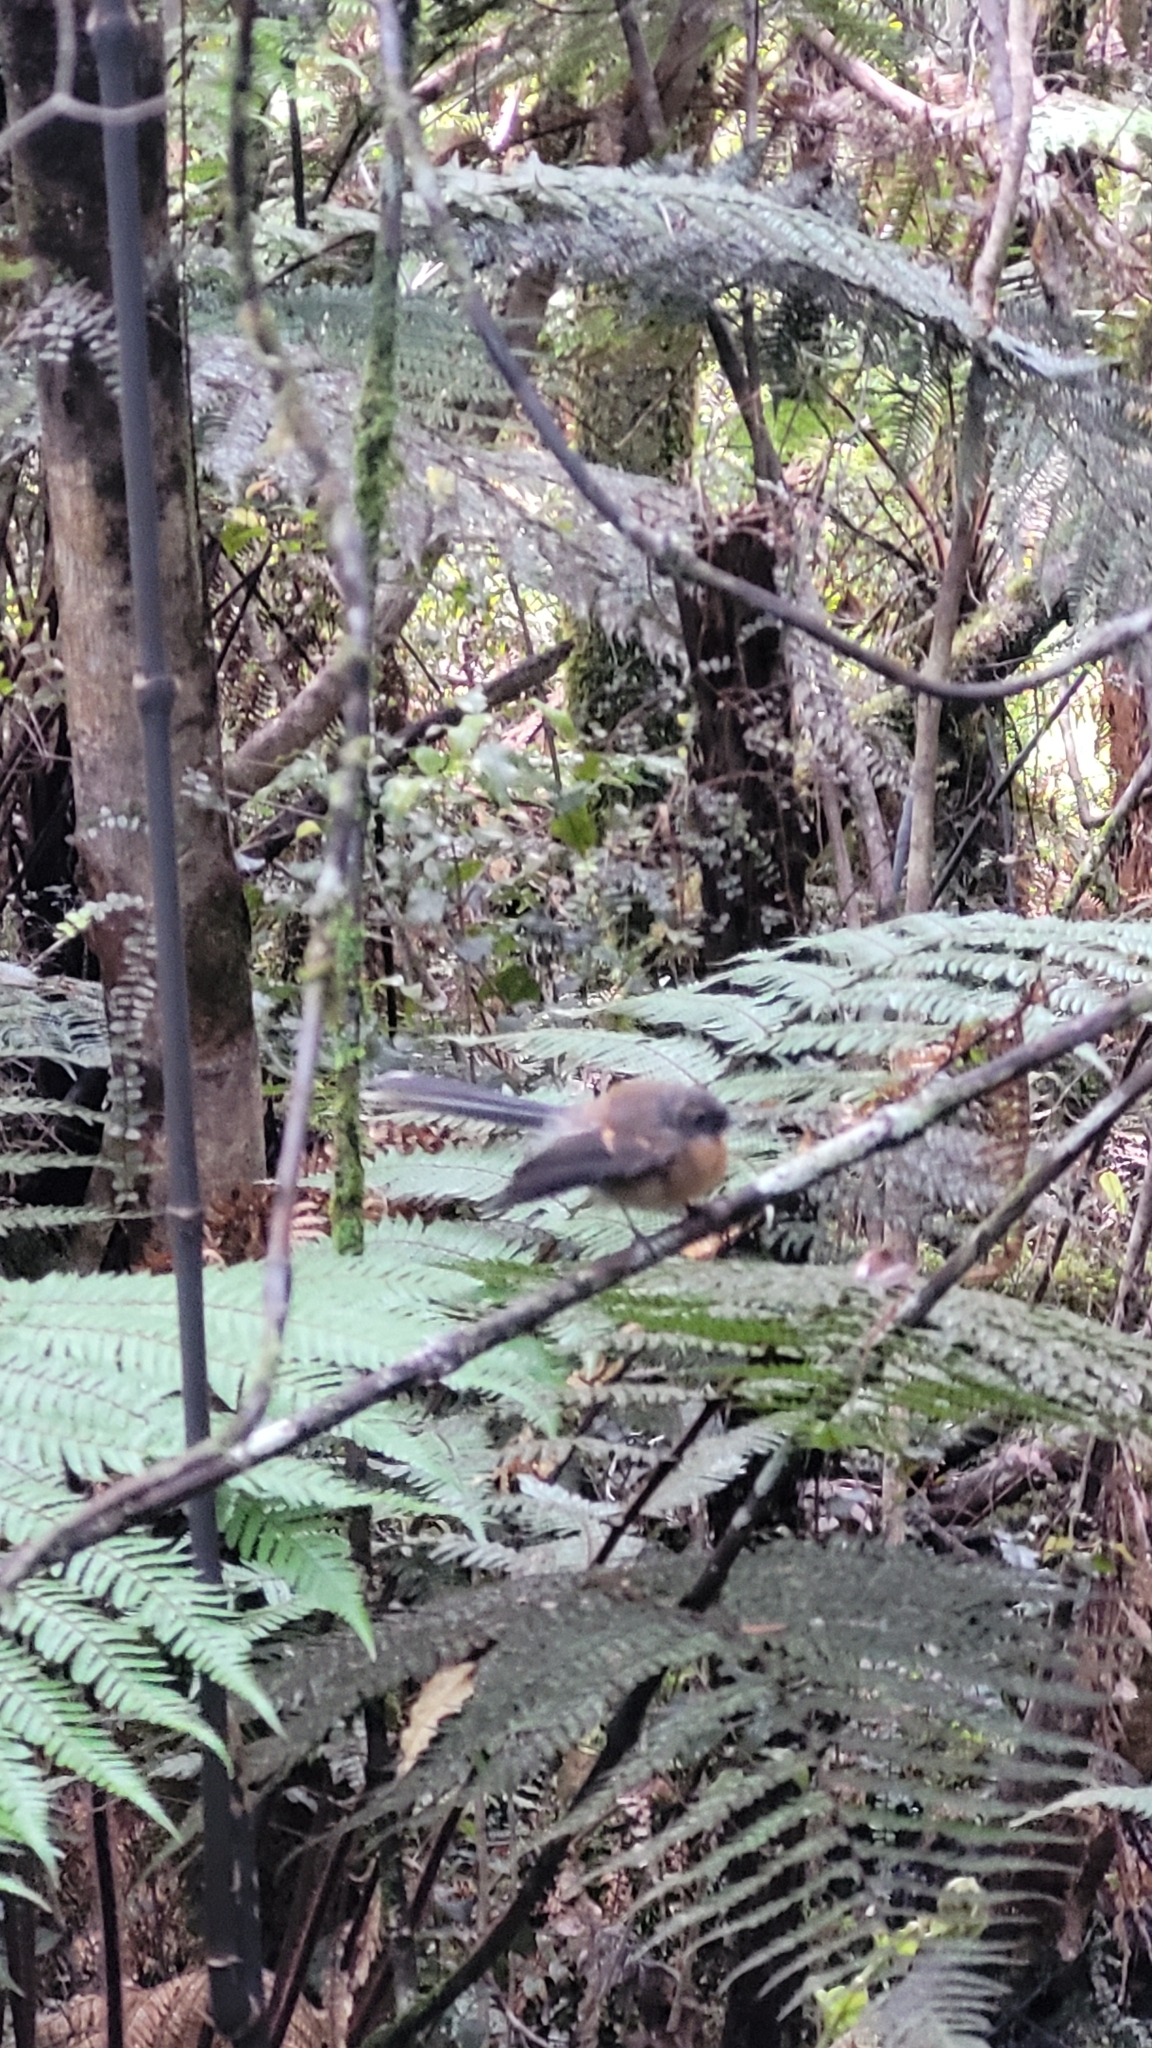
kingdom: Animalia
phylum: Chordata
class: Aves
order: Passeriformes
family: Rhipiduridae
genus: Rhipidura
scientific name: Rhipidura fuliginosa
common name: New zealand fantail
